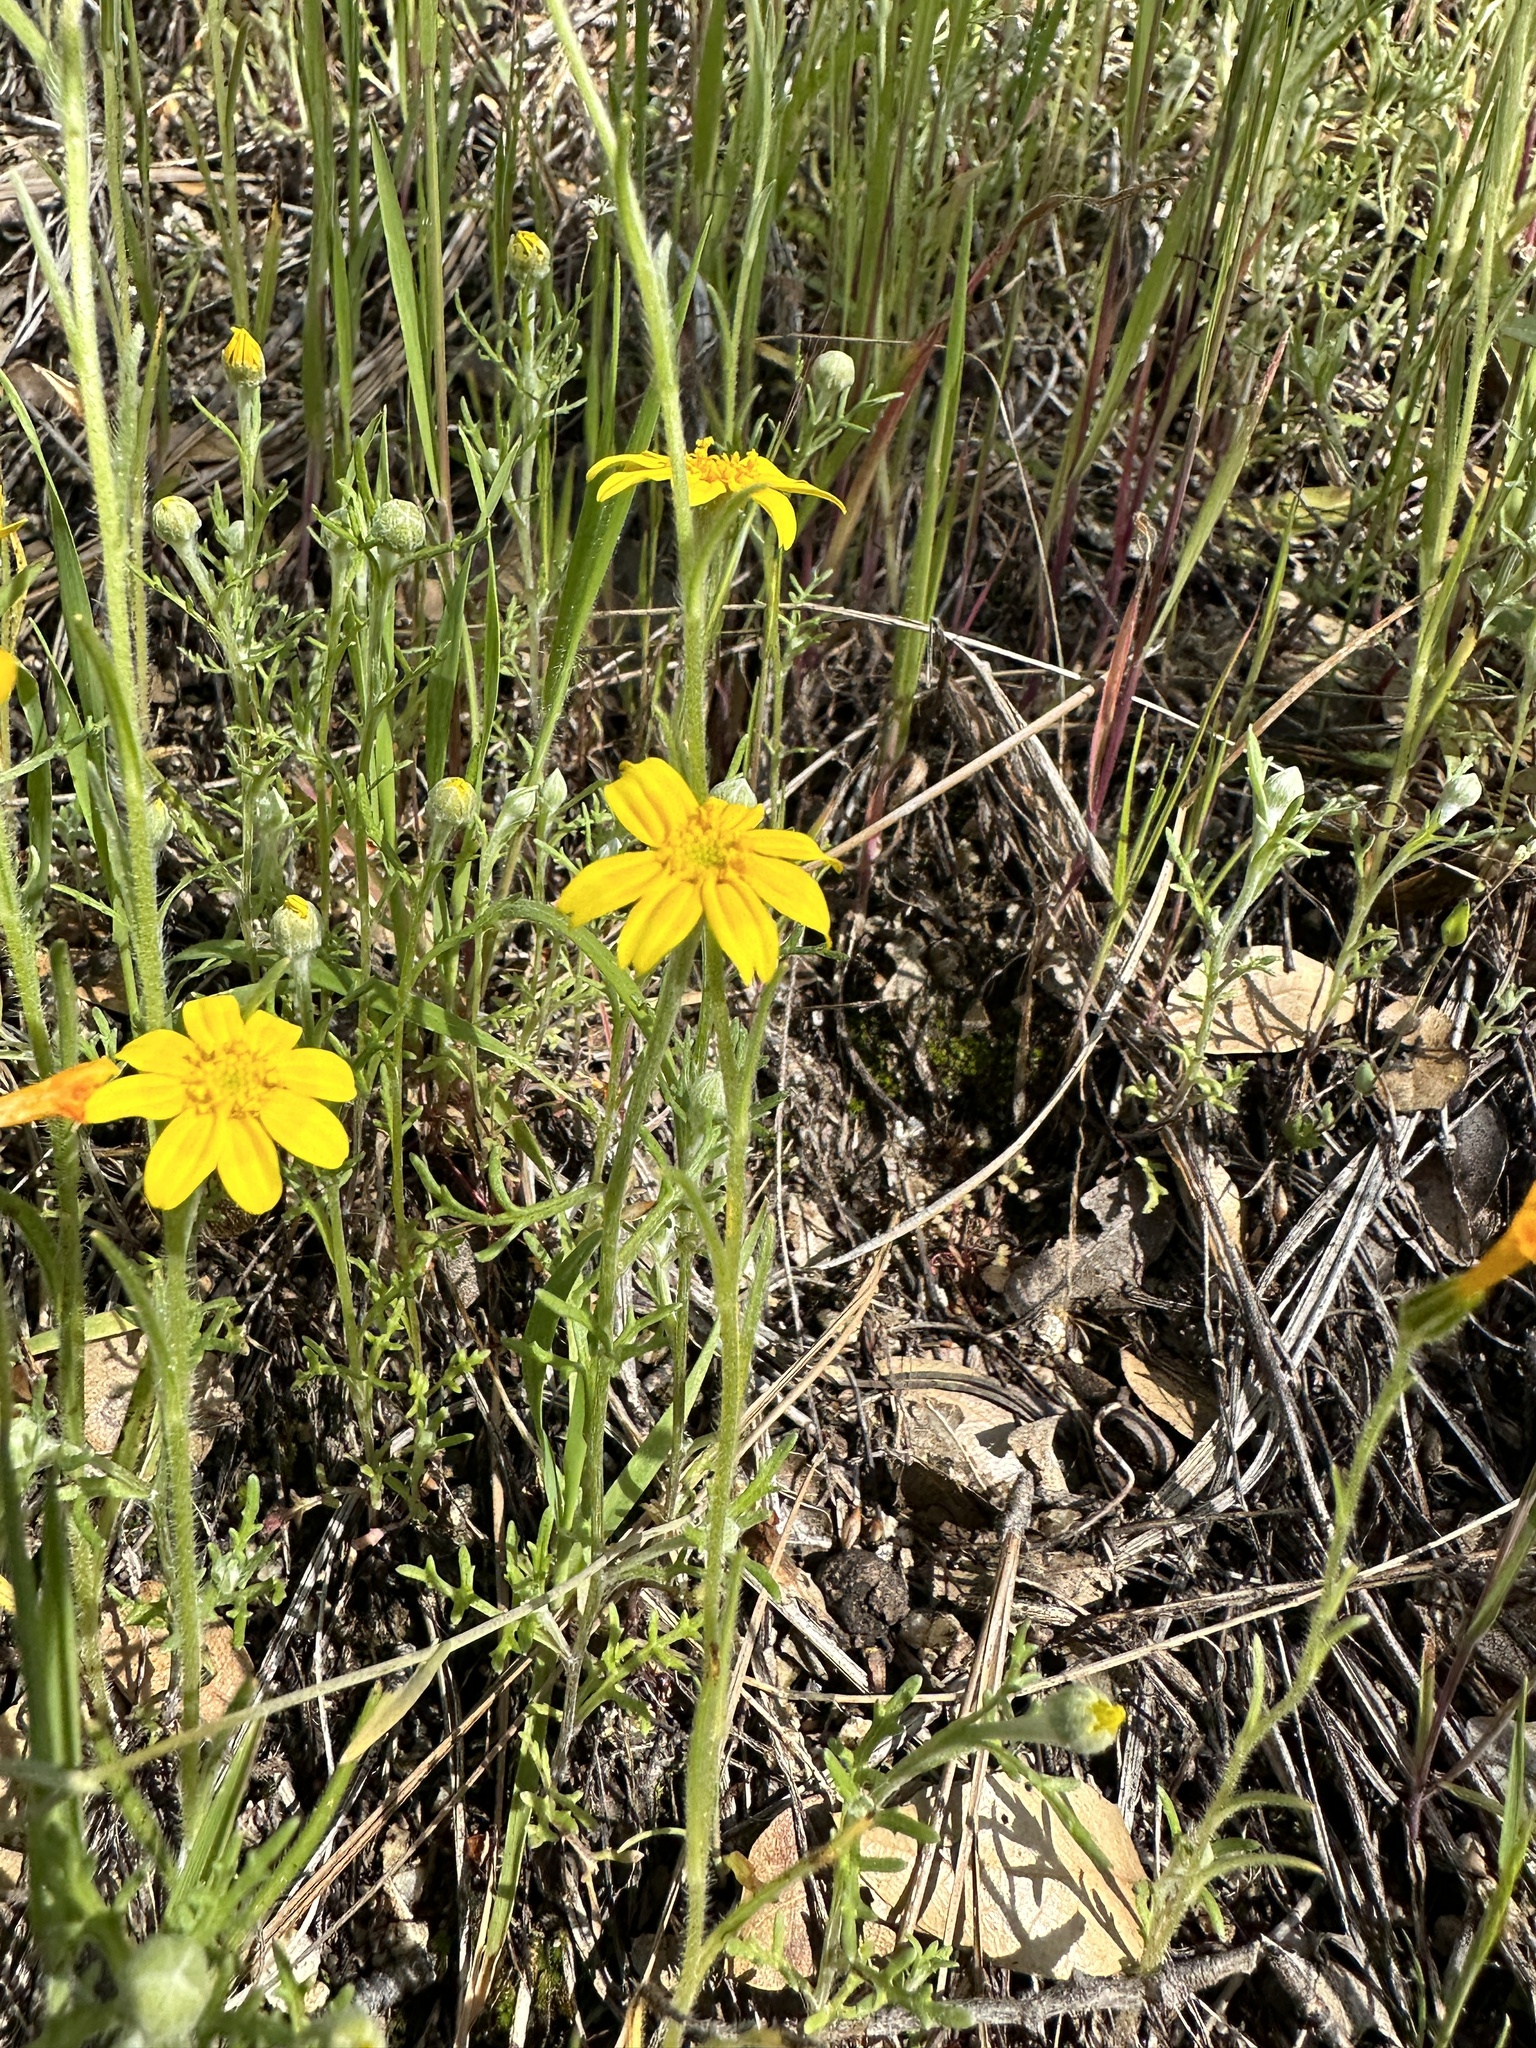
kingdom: Plantae
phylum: Tracheophyta
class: Magnoliopsida
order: Asterales
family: Asteraceae
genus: Pseudobahia
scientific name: Pseudobahia heermannii
